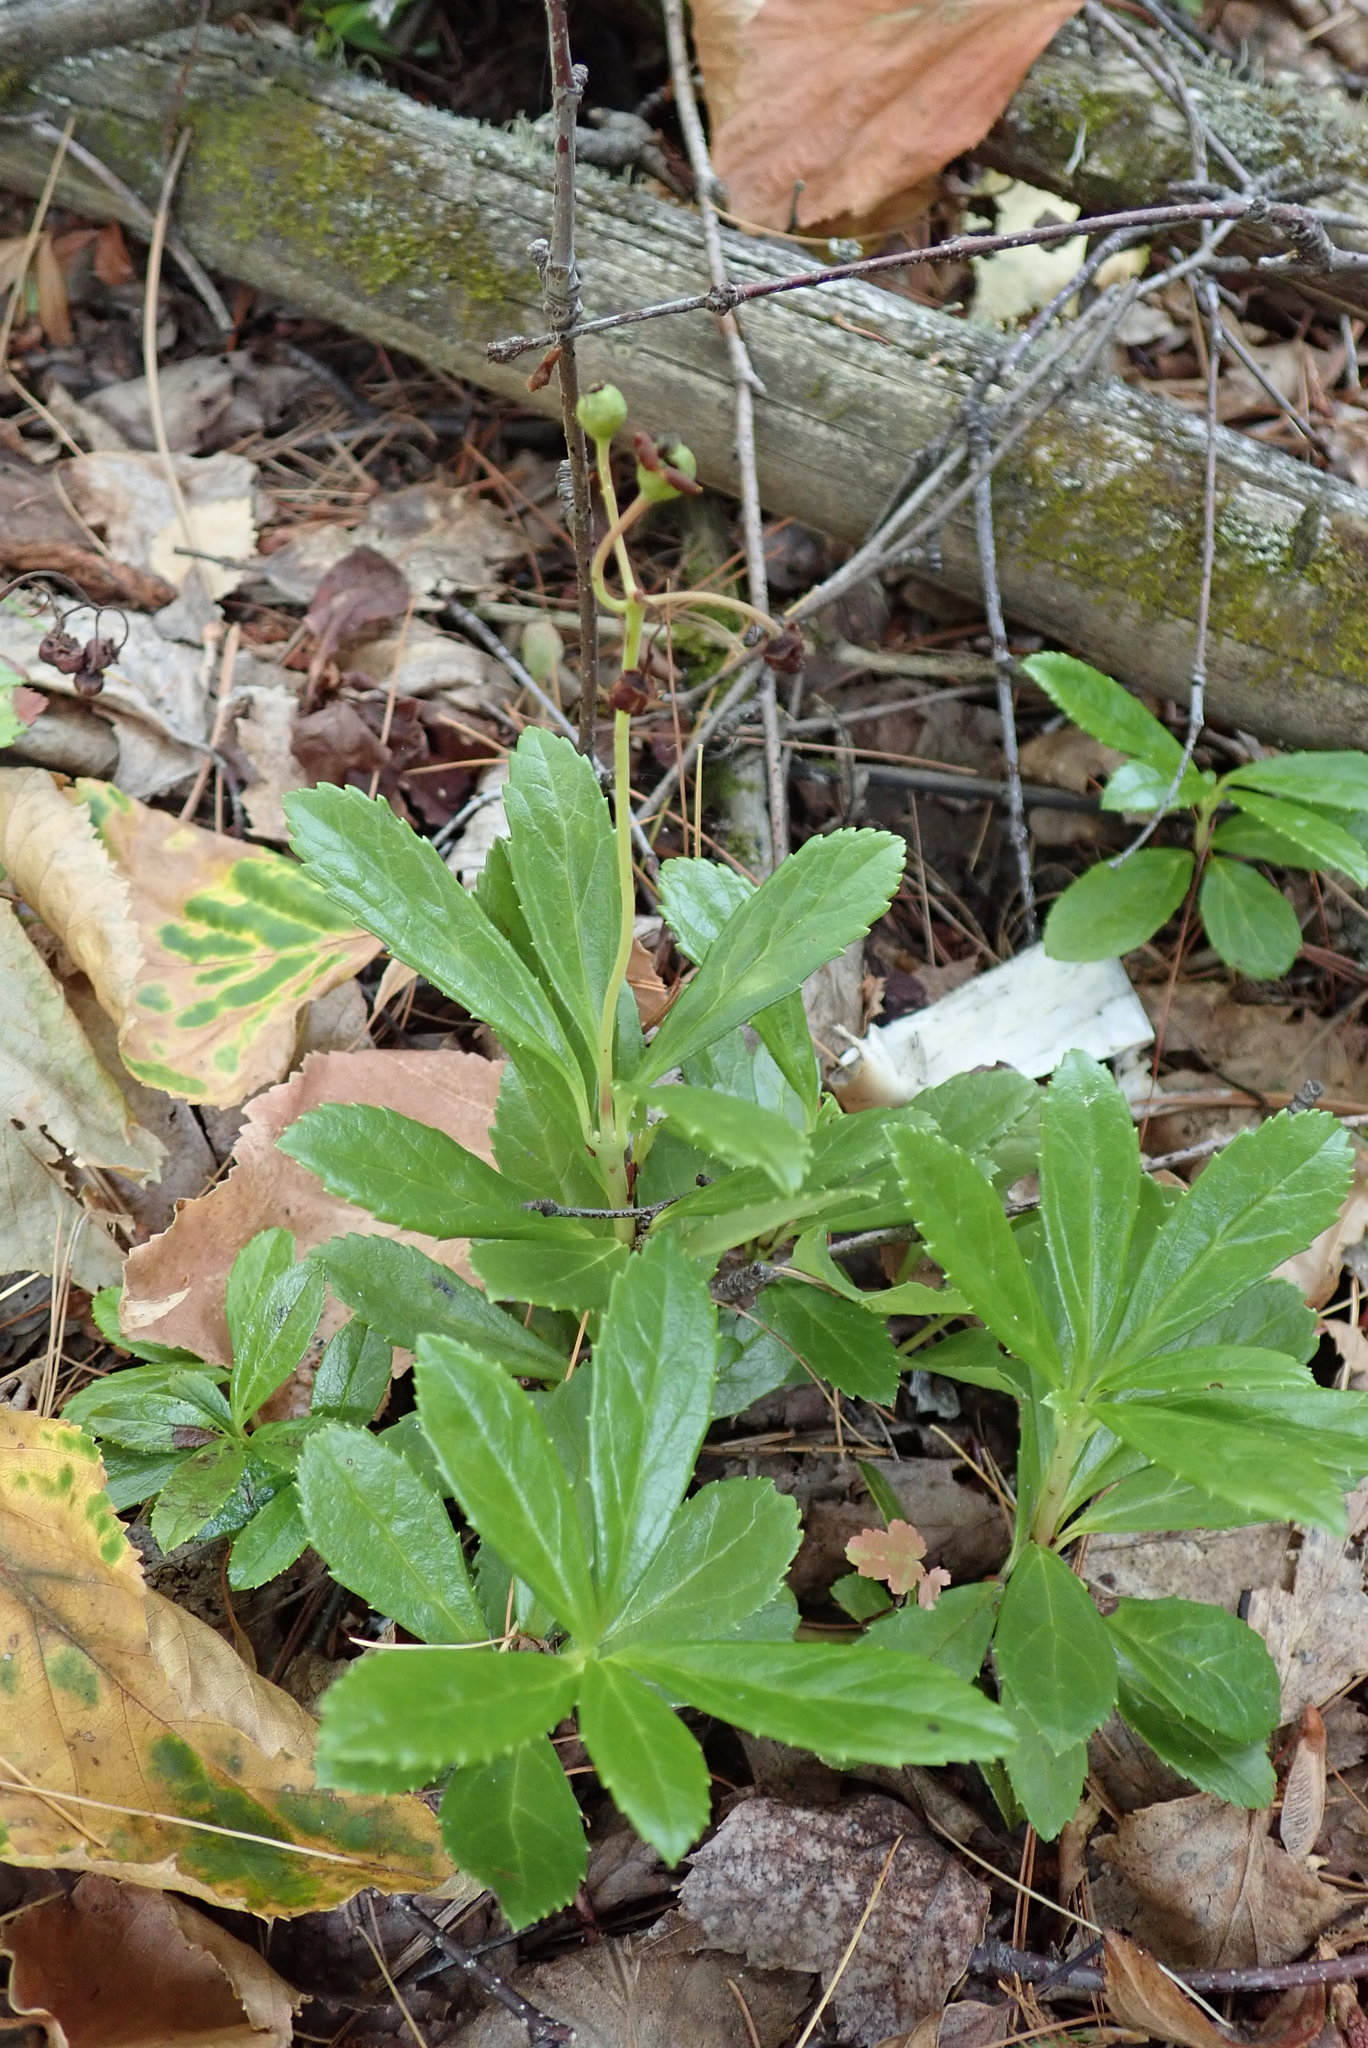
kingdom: Plantae
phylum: Tracheophyta
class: Magnoliopsida
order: Ericales
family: Ericaceae
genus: Chimaphila
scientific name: Chimaphila umbellata
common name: Pipsissewa
